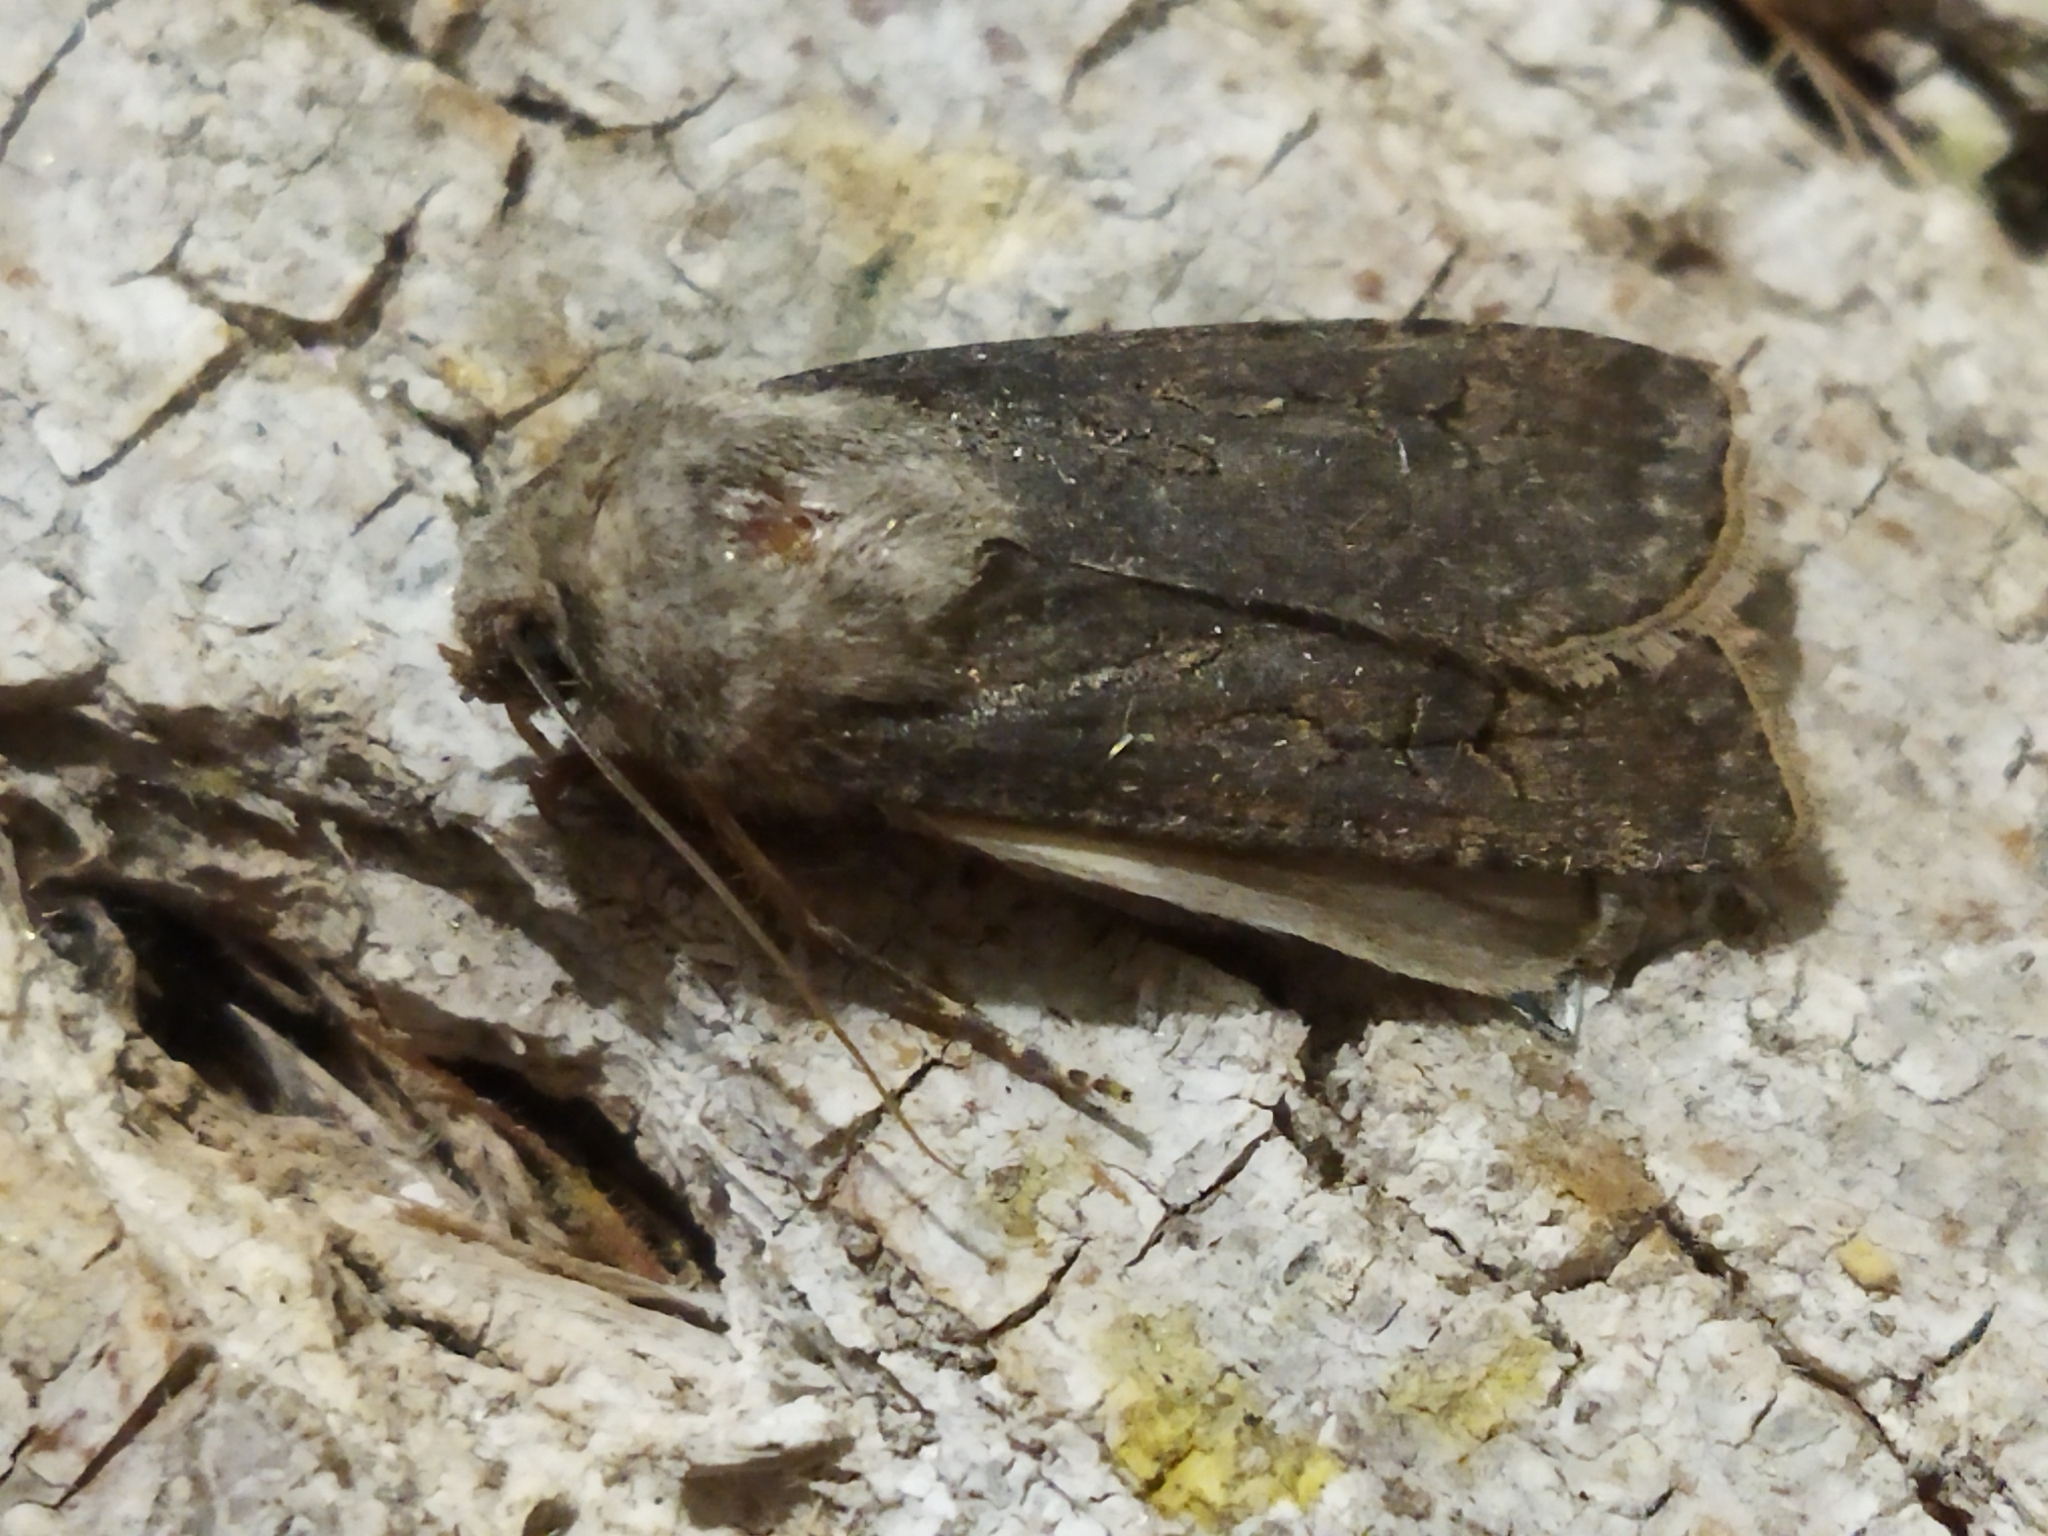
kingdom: Animalia
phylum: Arthropoda
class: Insecta
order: Lepidoptera
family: Noctuidae
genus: Agrotis
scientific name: Agrotis segetum
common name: Turnip moth
